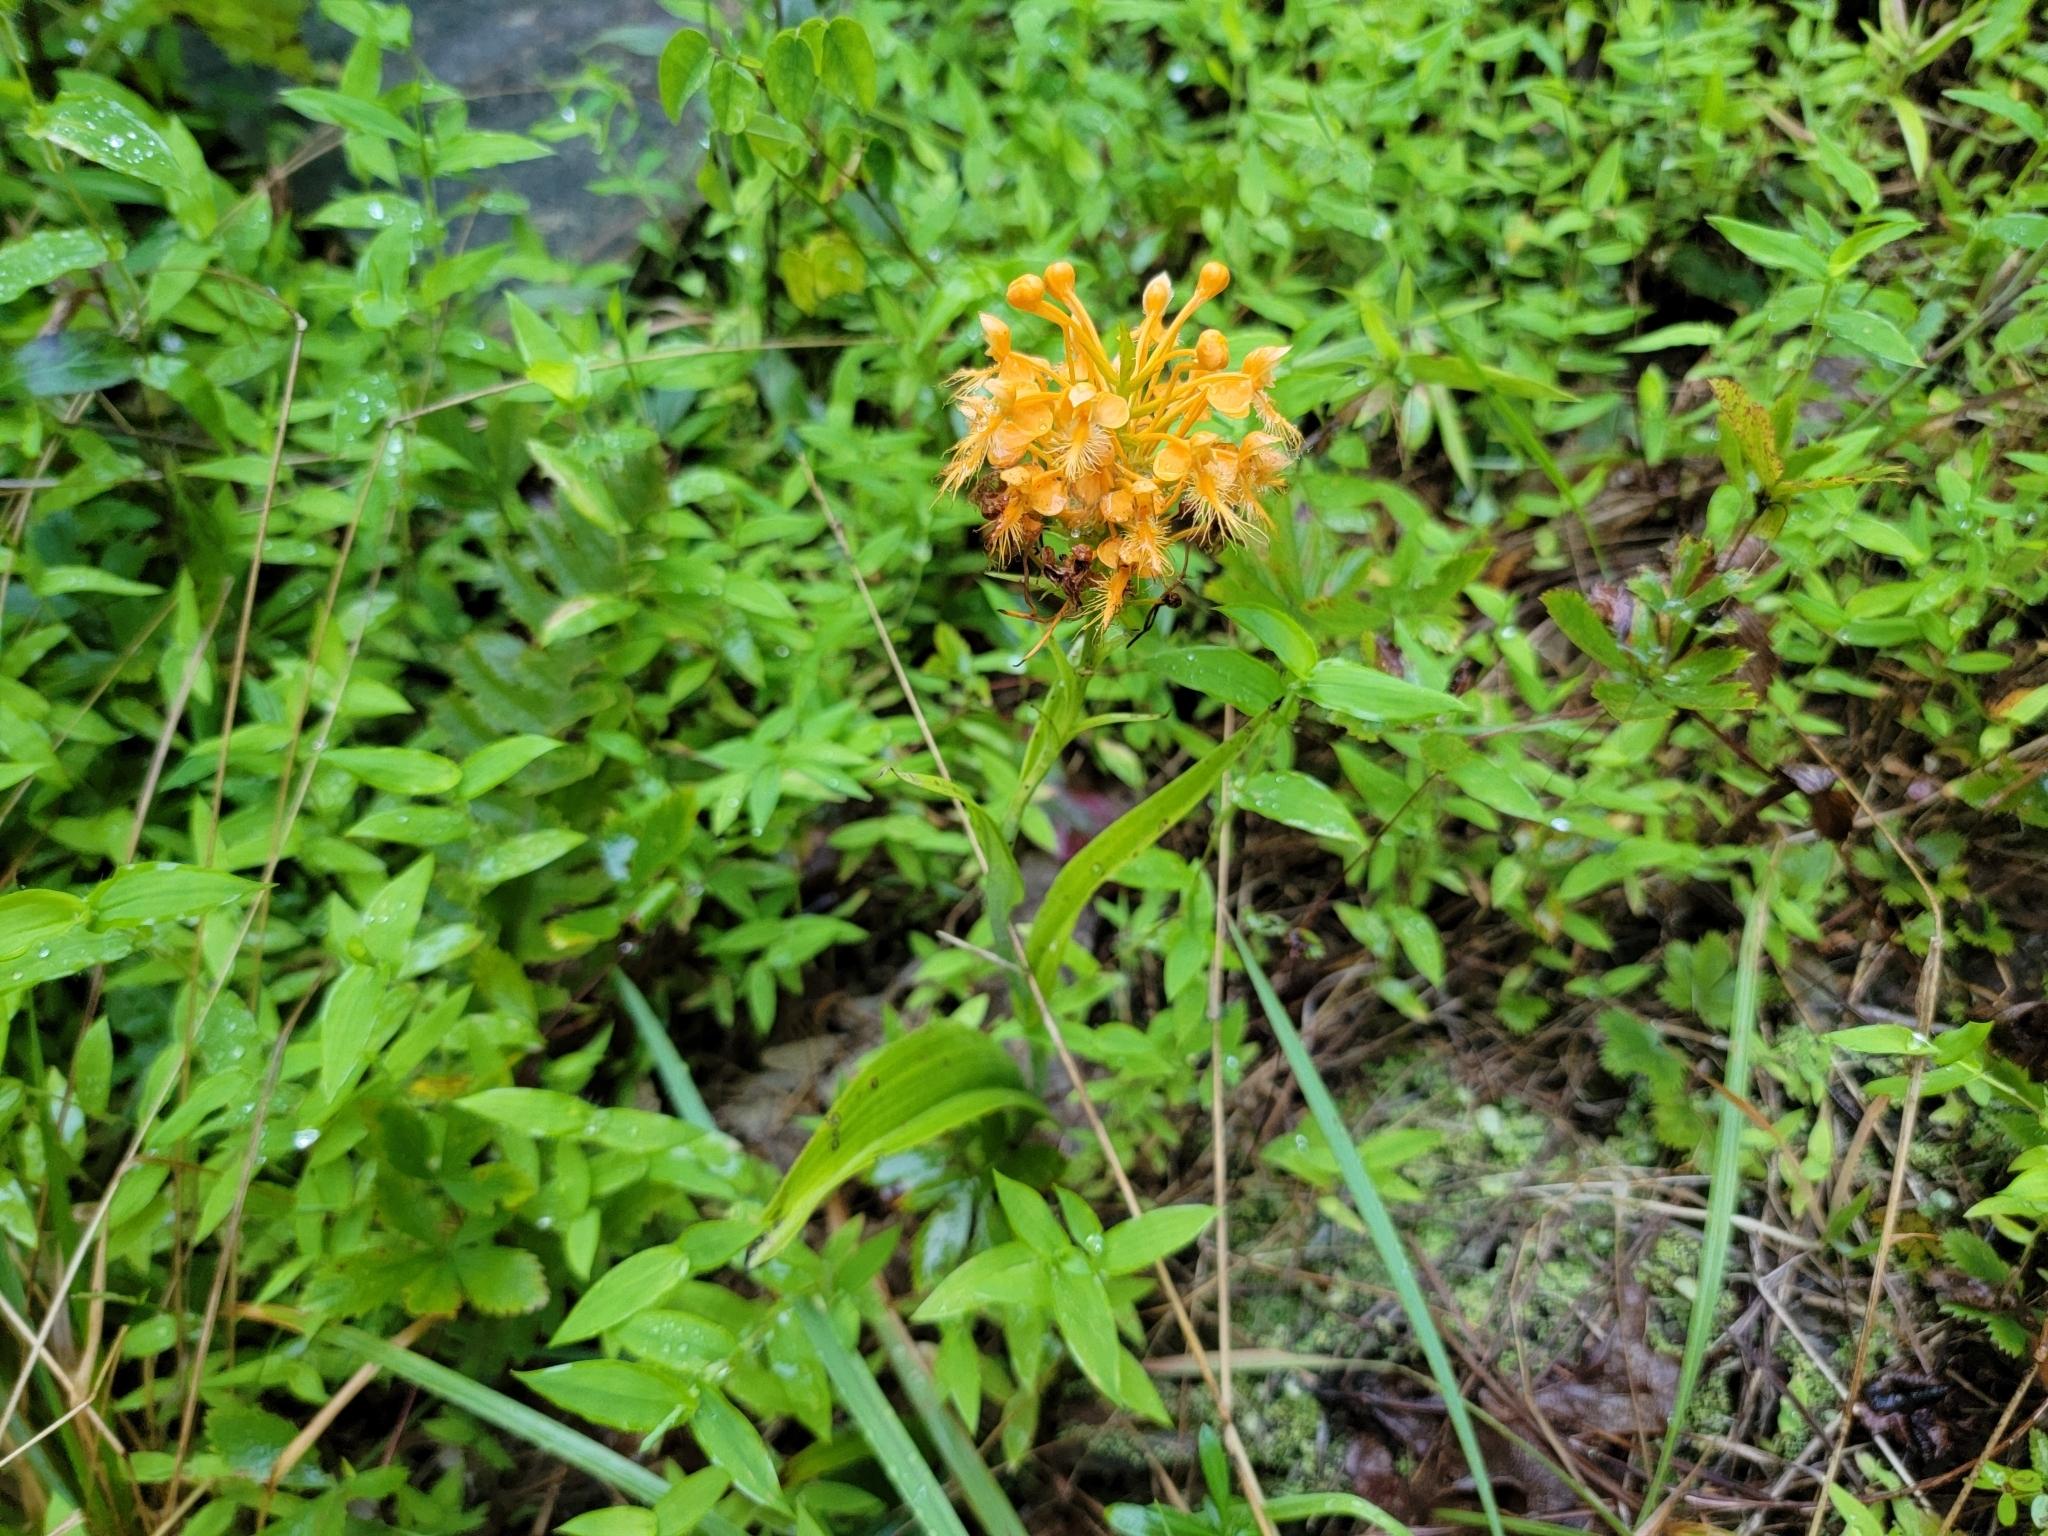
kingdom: Plantae
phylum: Tracheophyta
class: Liliopsida
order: Asparagales
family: Orchidaceae
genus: Platanthera
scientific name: Platanthera ciliaris
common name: Yellow fringed orchid
